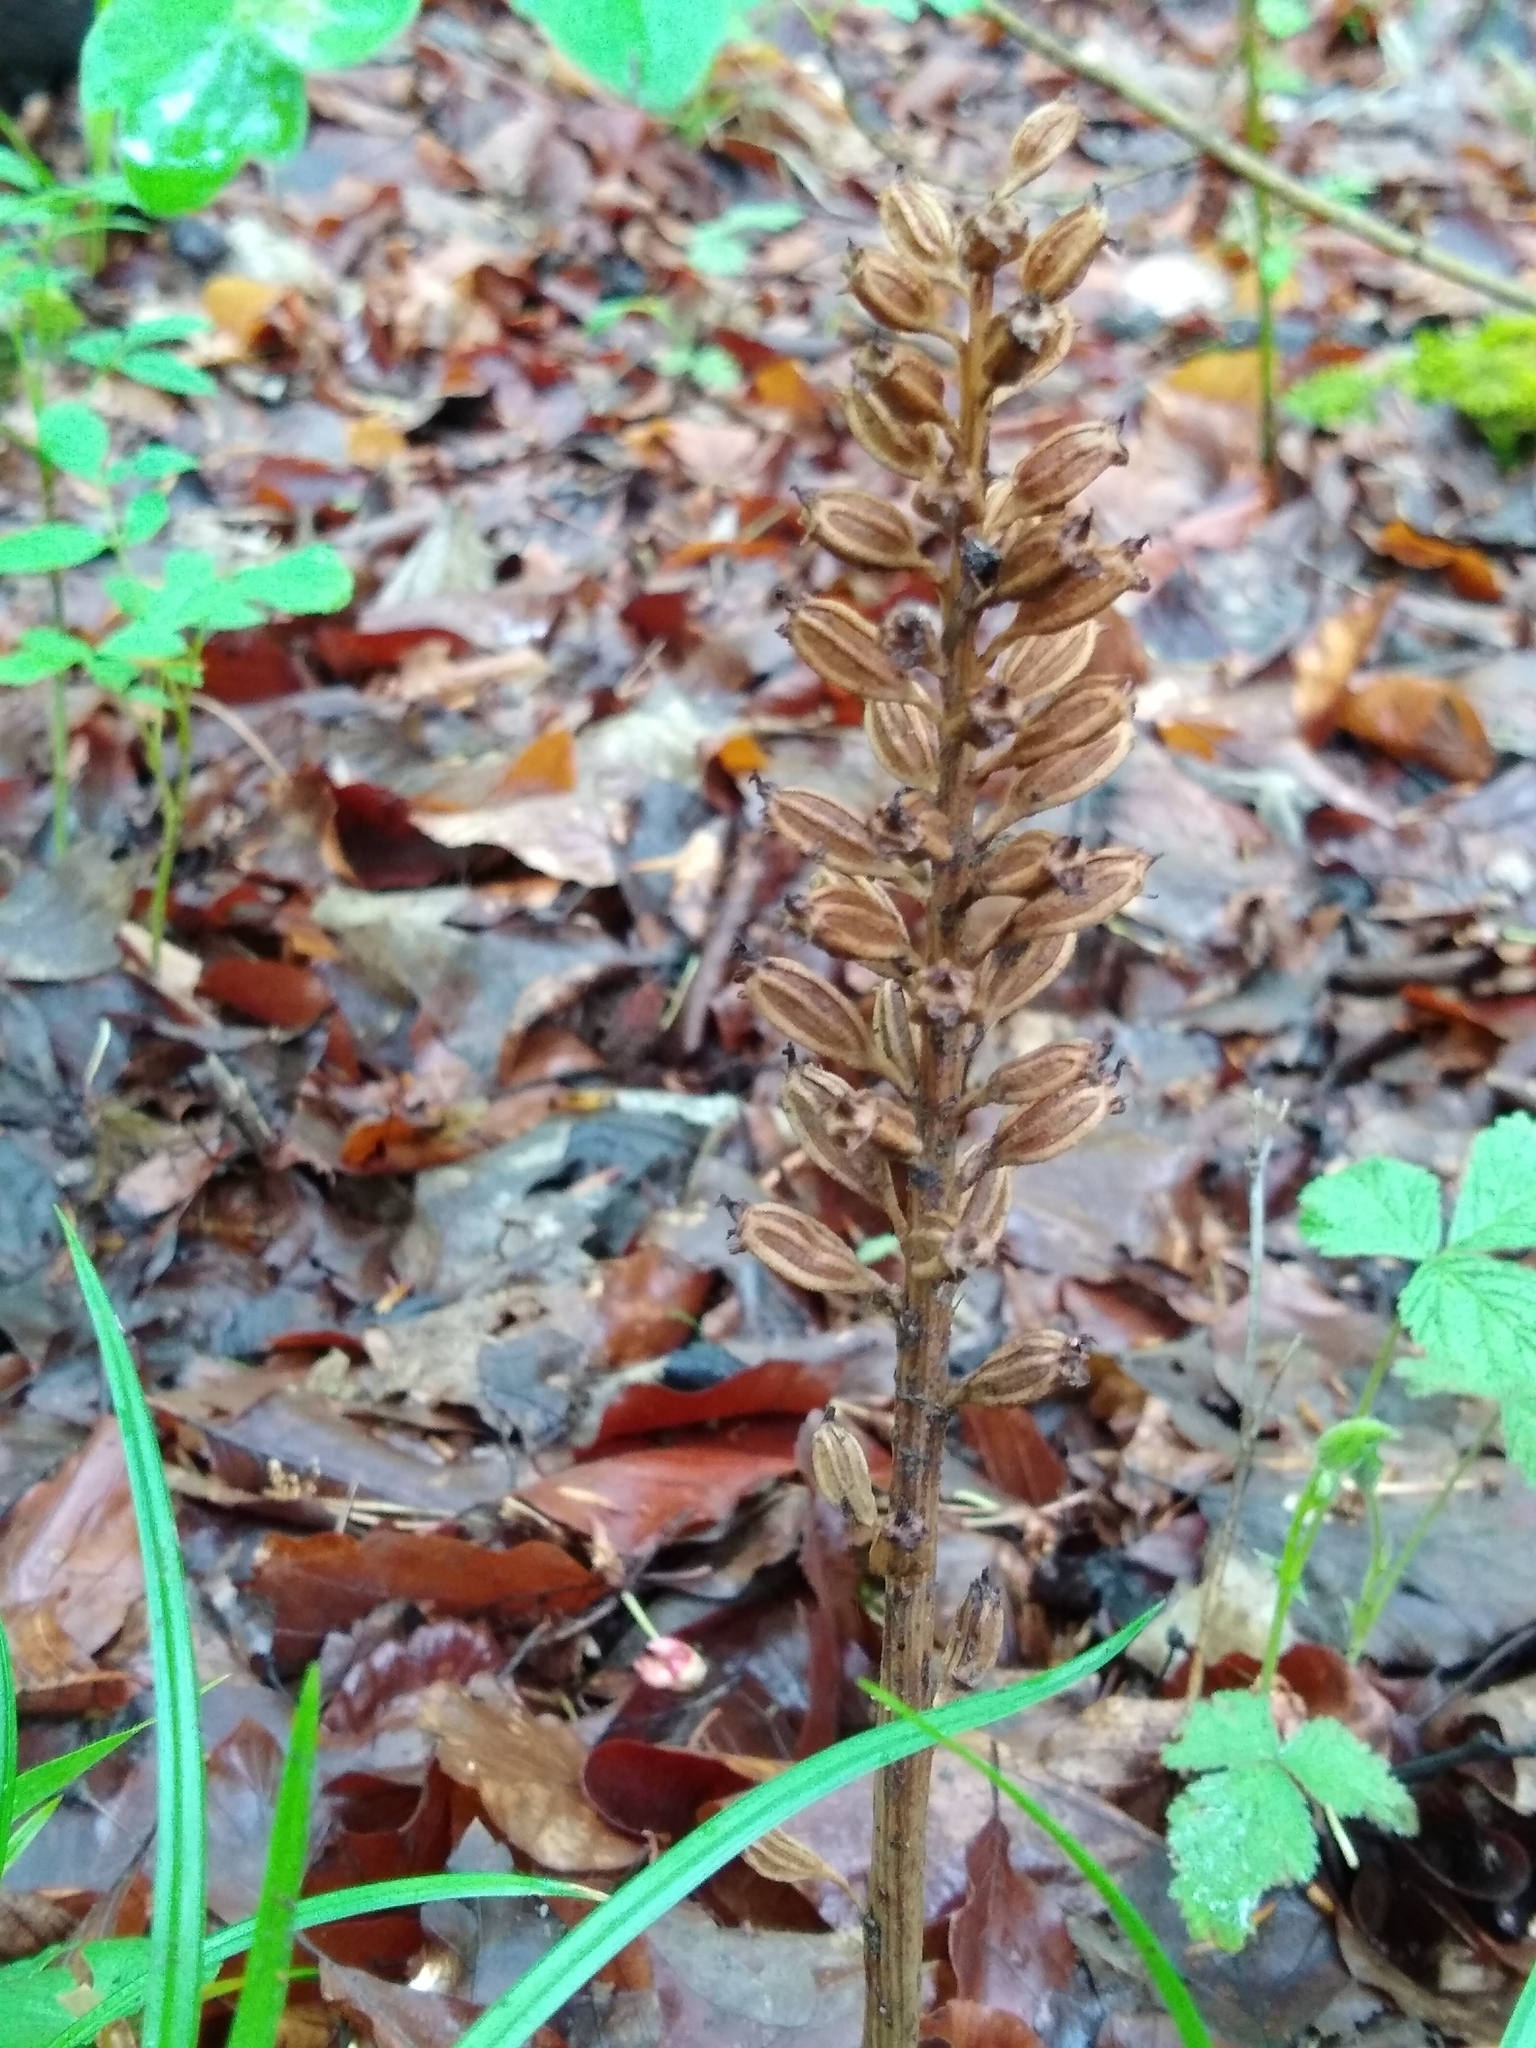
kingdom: Plantae
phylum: Tracheophyta
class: Liliopsida
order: Asparagales
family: Orchidaceae
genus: Neottia
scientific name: Neottia nidus-avis
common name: Bird's-nest orchid
